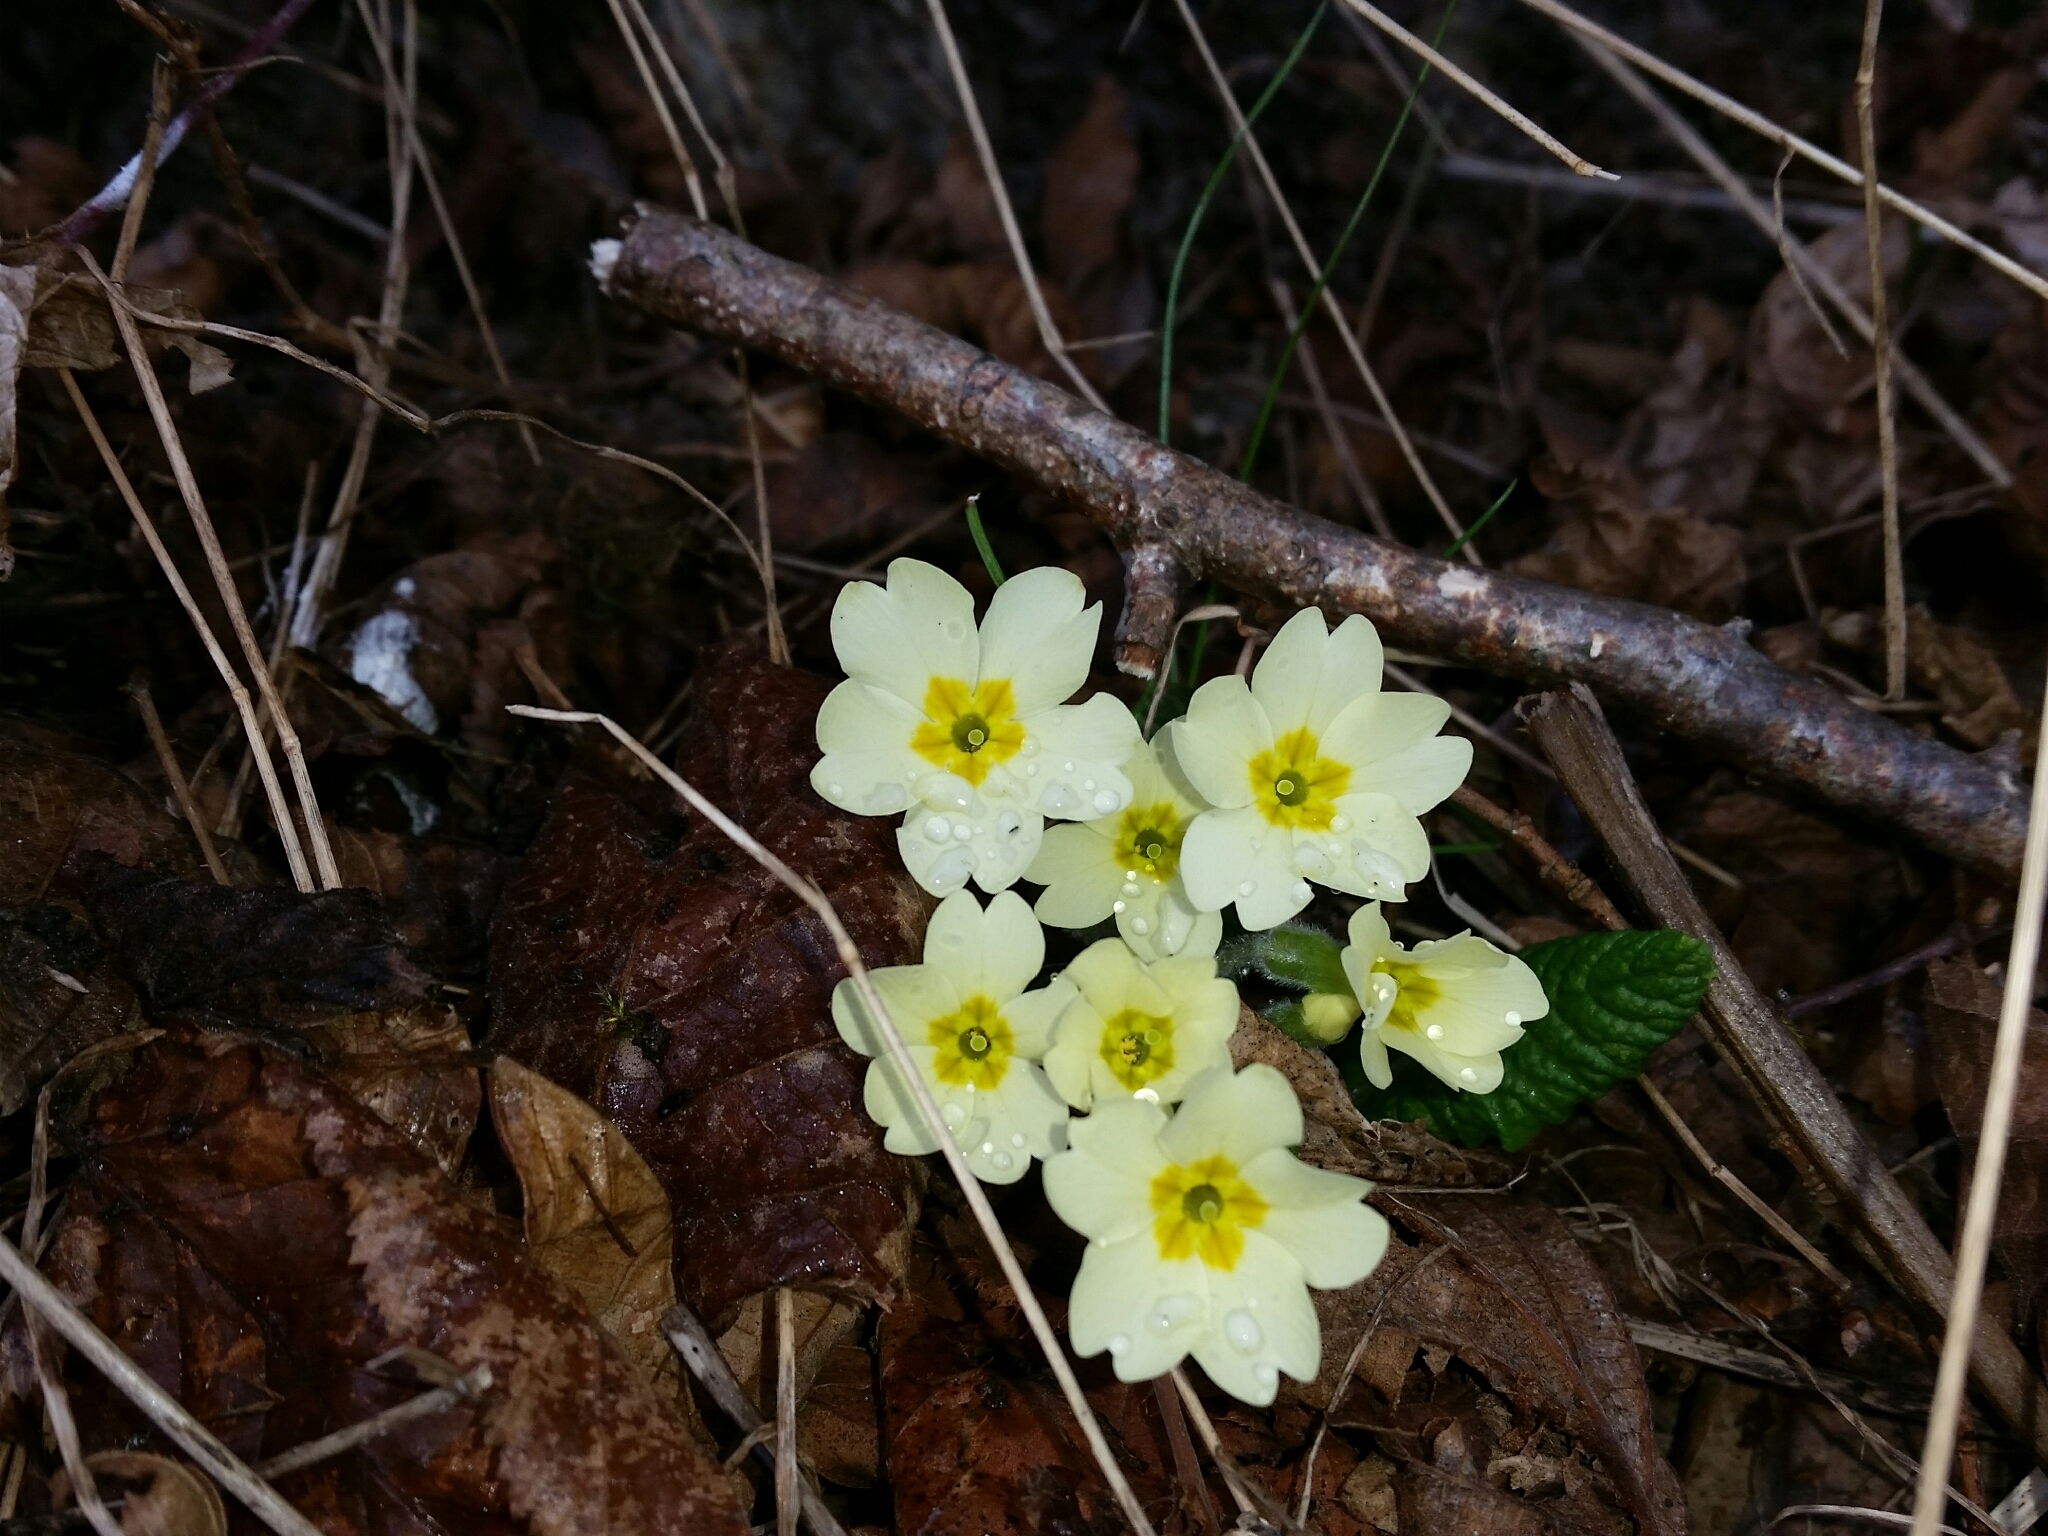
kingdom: Plantae
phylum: Tracheophyta
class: Magnoliopsida
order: Ericales
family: Primulaceae
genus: Primula
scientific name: Primula vulgaris
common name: Primrose
